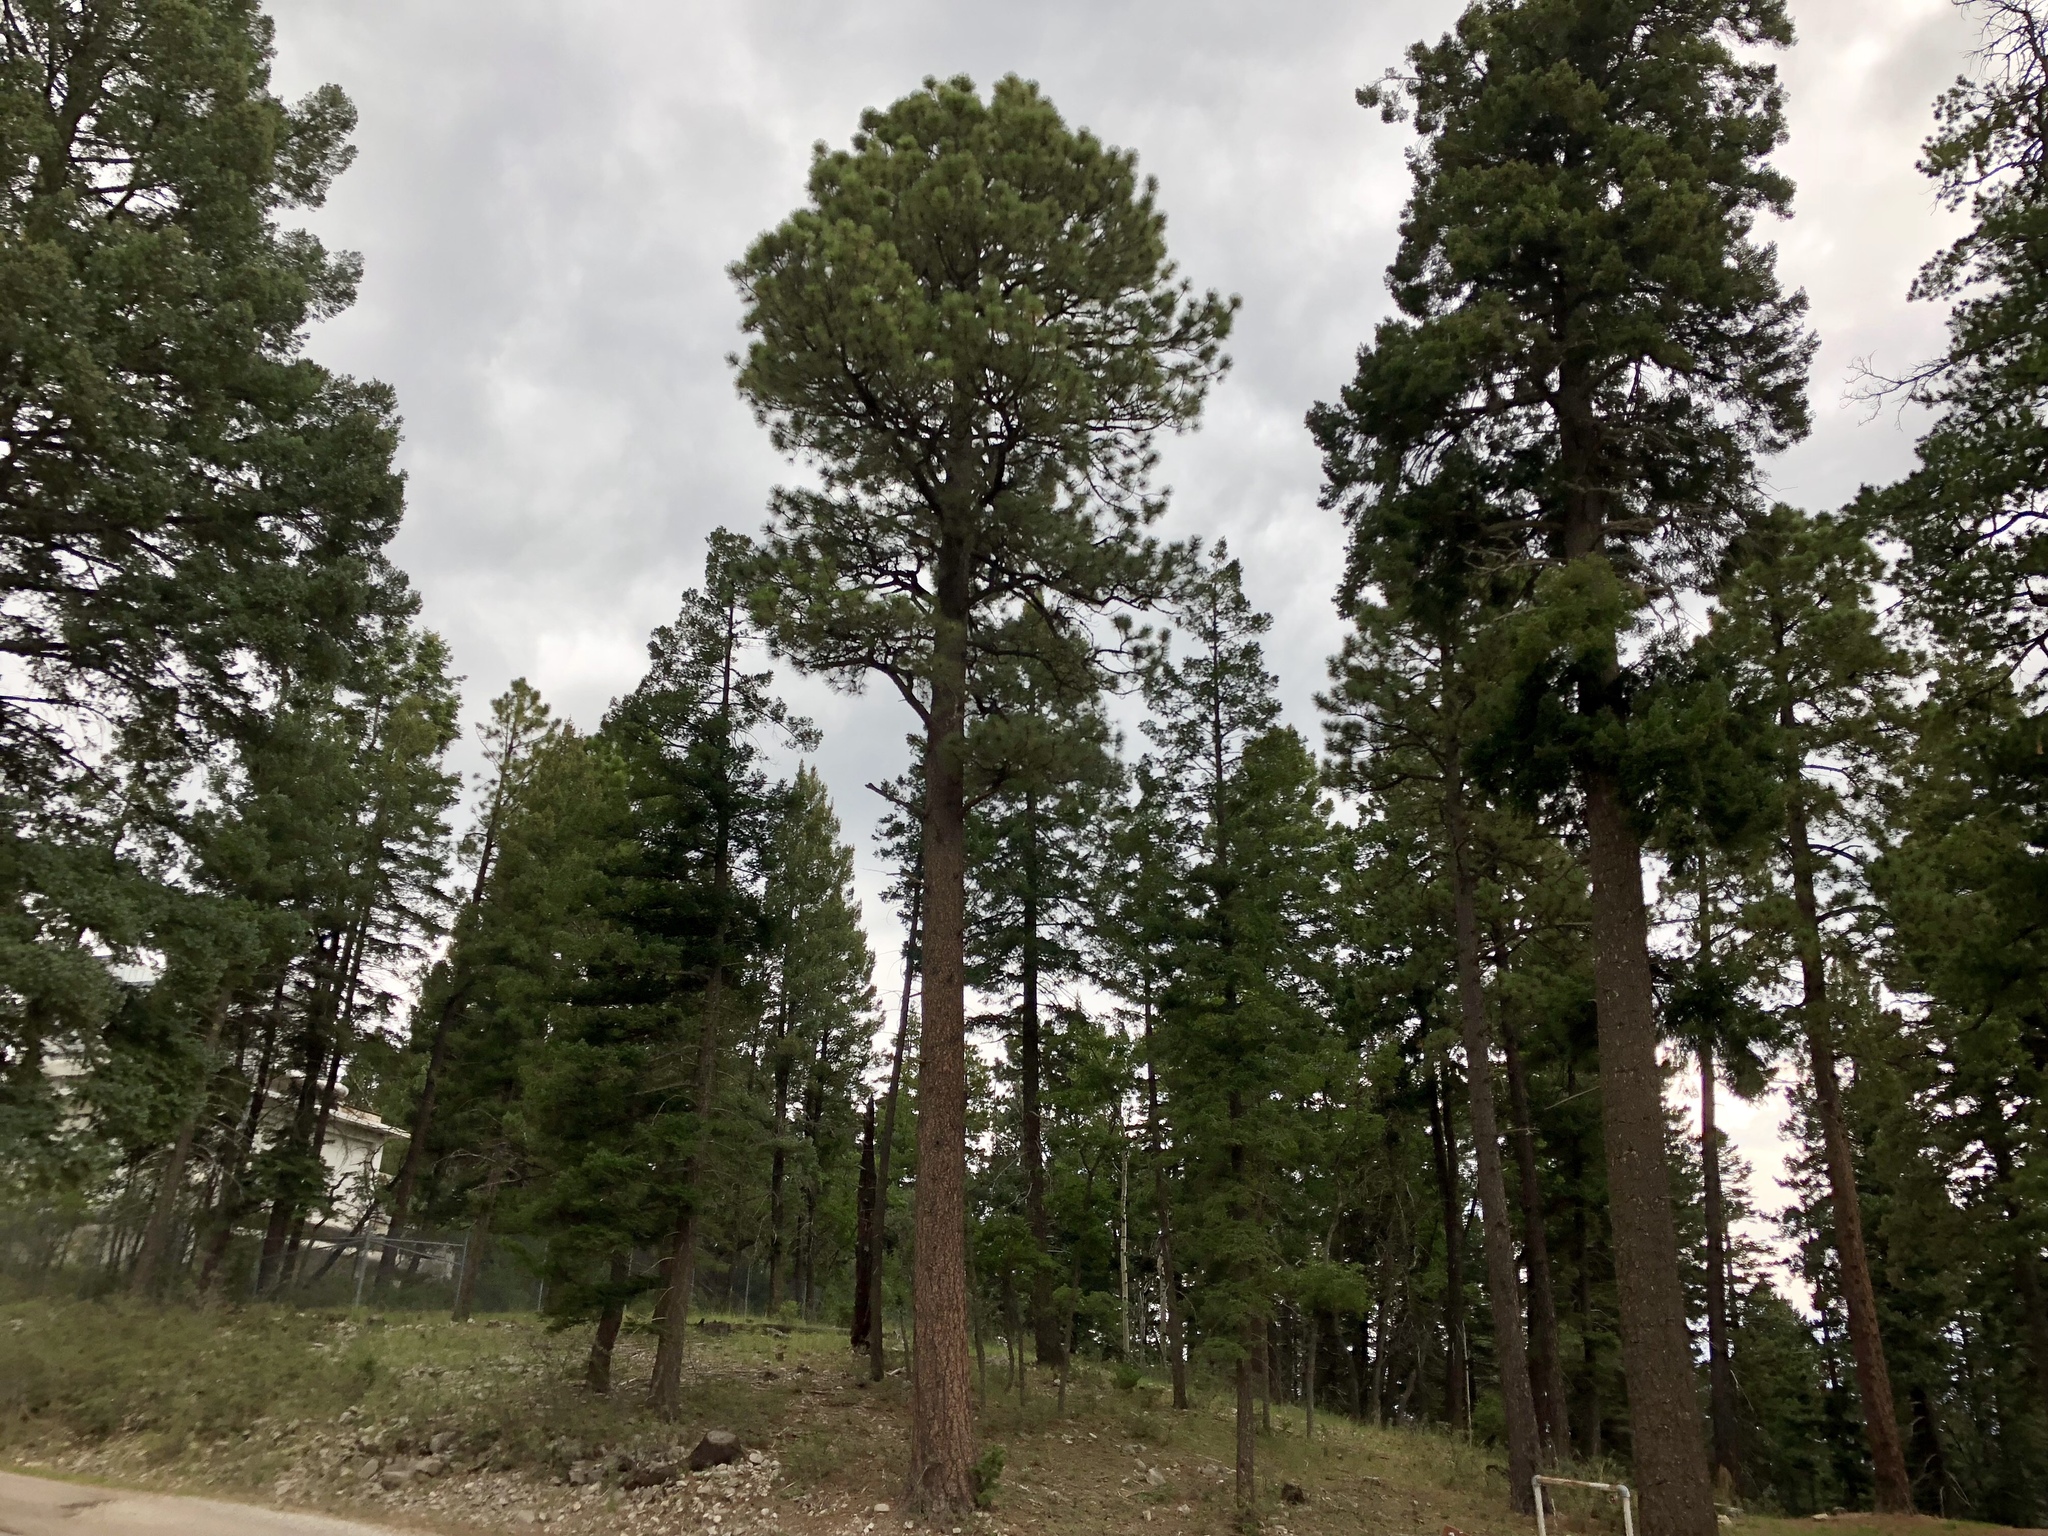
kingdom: Plantae
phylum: Tracheophyta
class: Pinopsida
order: Pinales
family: Pinaceae
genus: Pinus
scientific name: Pinus ponderosa
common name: Western yellow-pine
